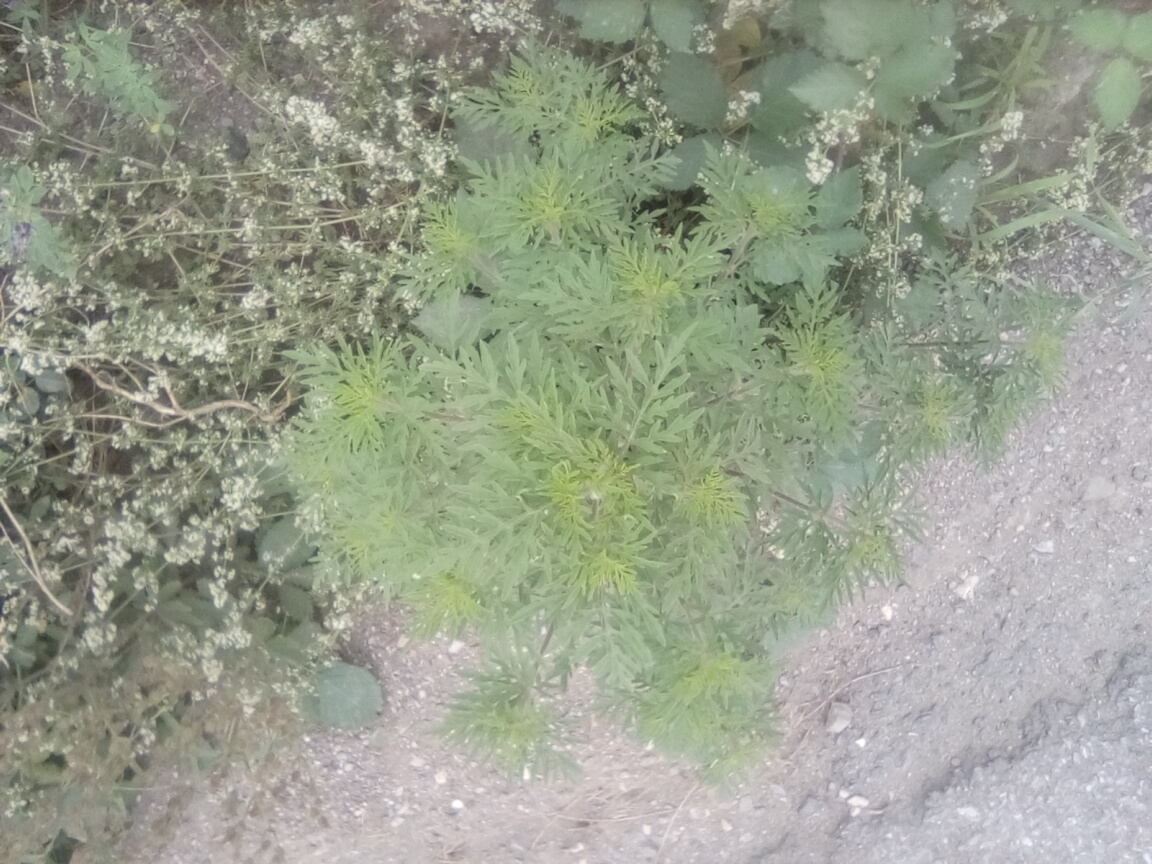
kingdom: Plantae
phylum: Tracheophyta
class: Magnoliopsida
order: Asterales
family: Asteraceae
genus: Ambrosia
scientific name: Ambrosia artemisiifolia
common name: Annual ragweed
